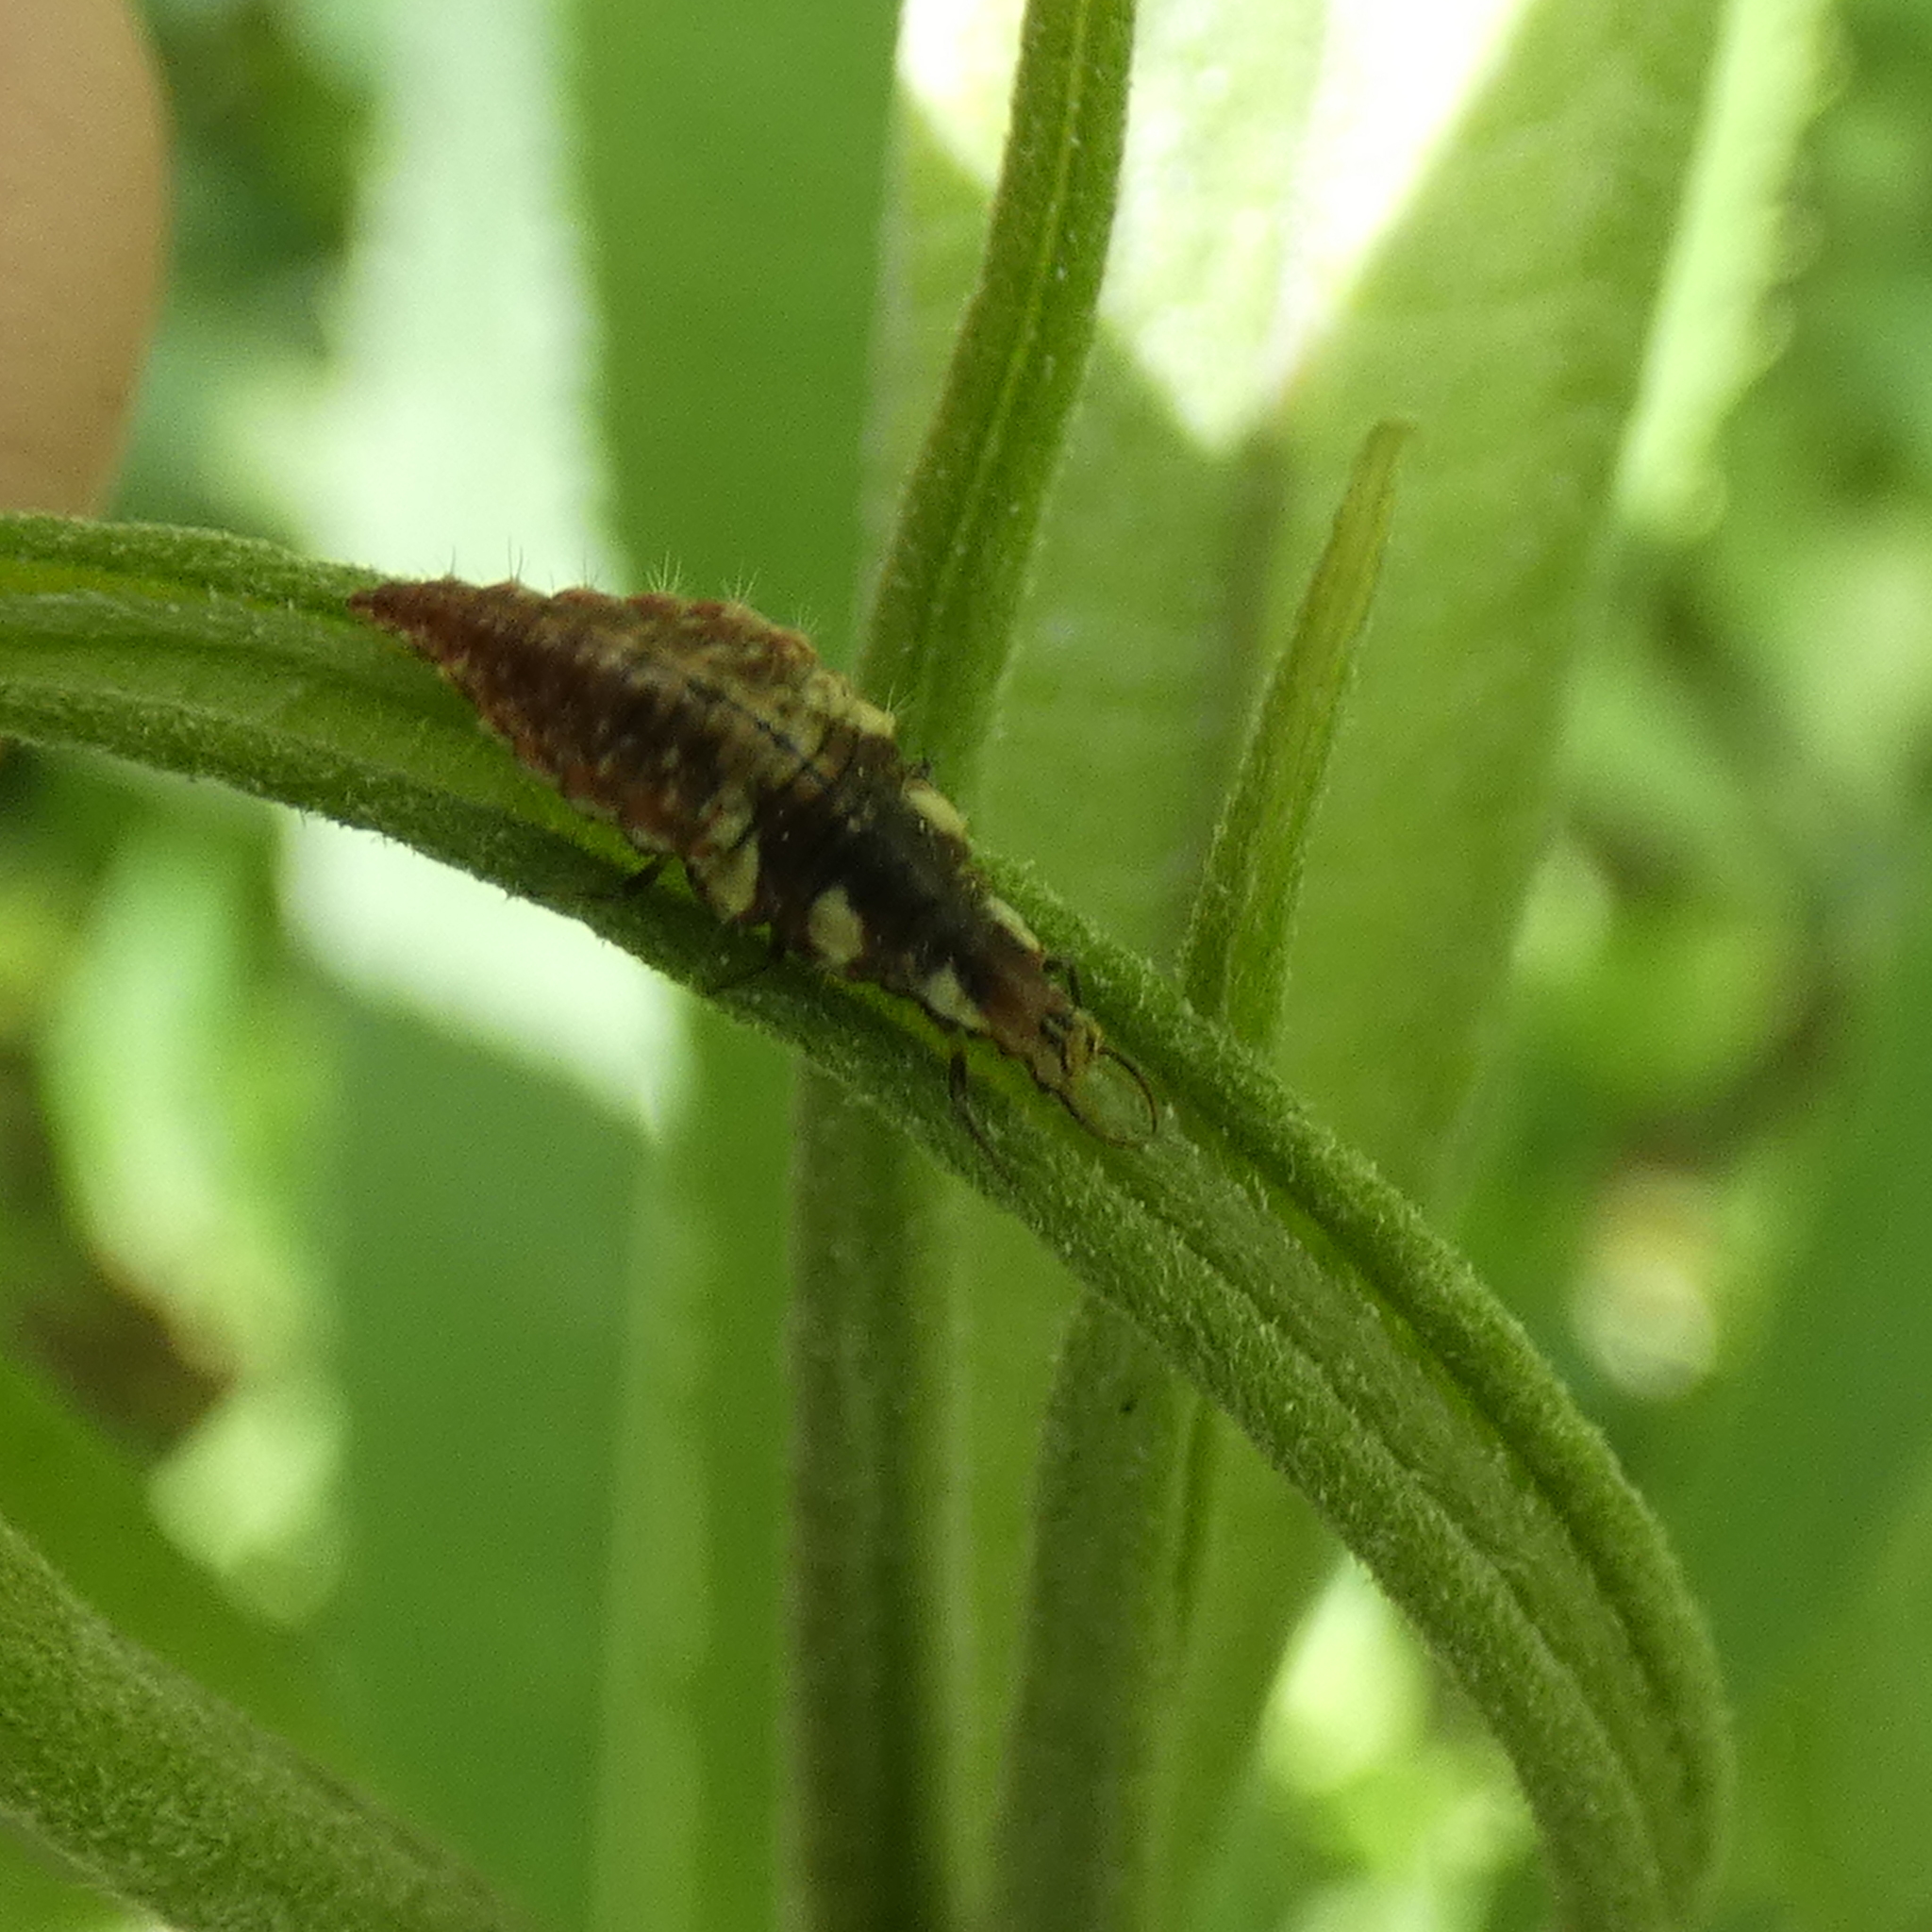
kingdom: Animalia
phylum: Arthropoda
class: Insecta
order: Neuroptera
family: Chrysopidae
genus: Chrysoperla
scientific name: Chrysoperla rufilabris
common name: Red-lipped green lacewing
